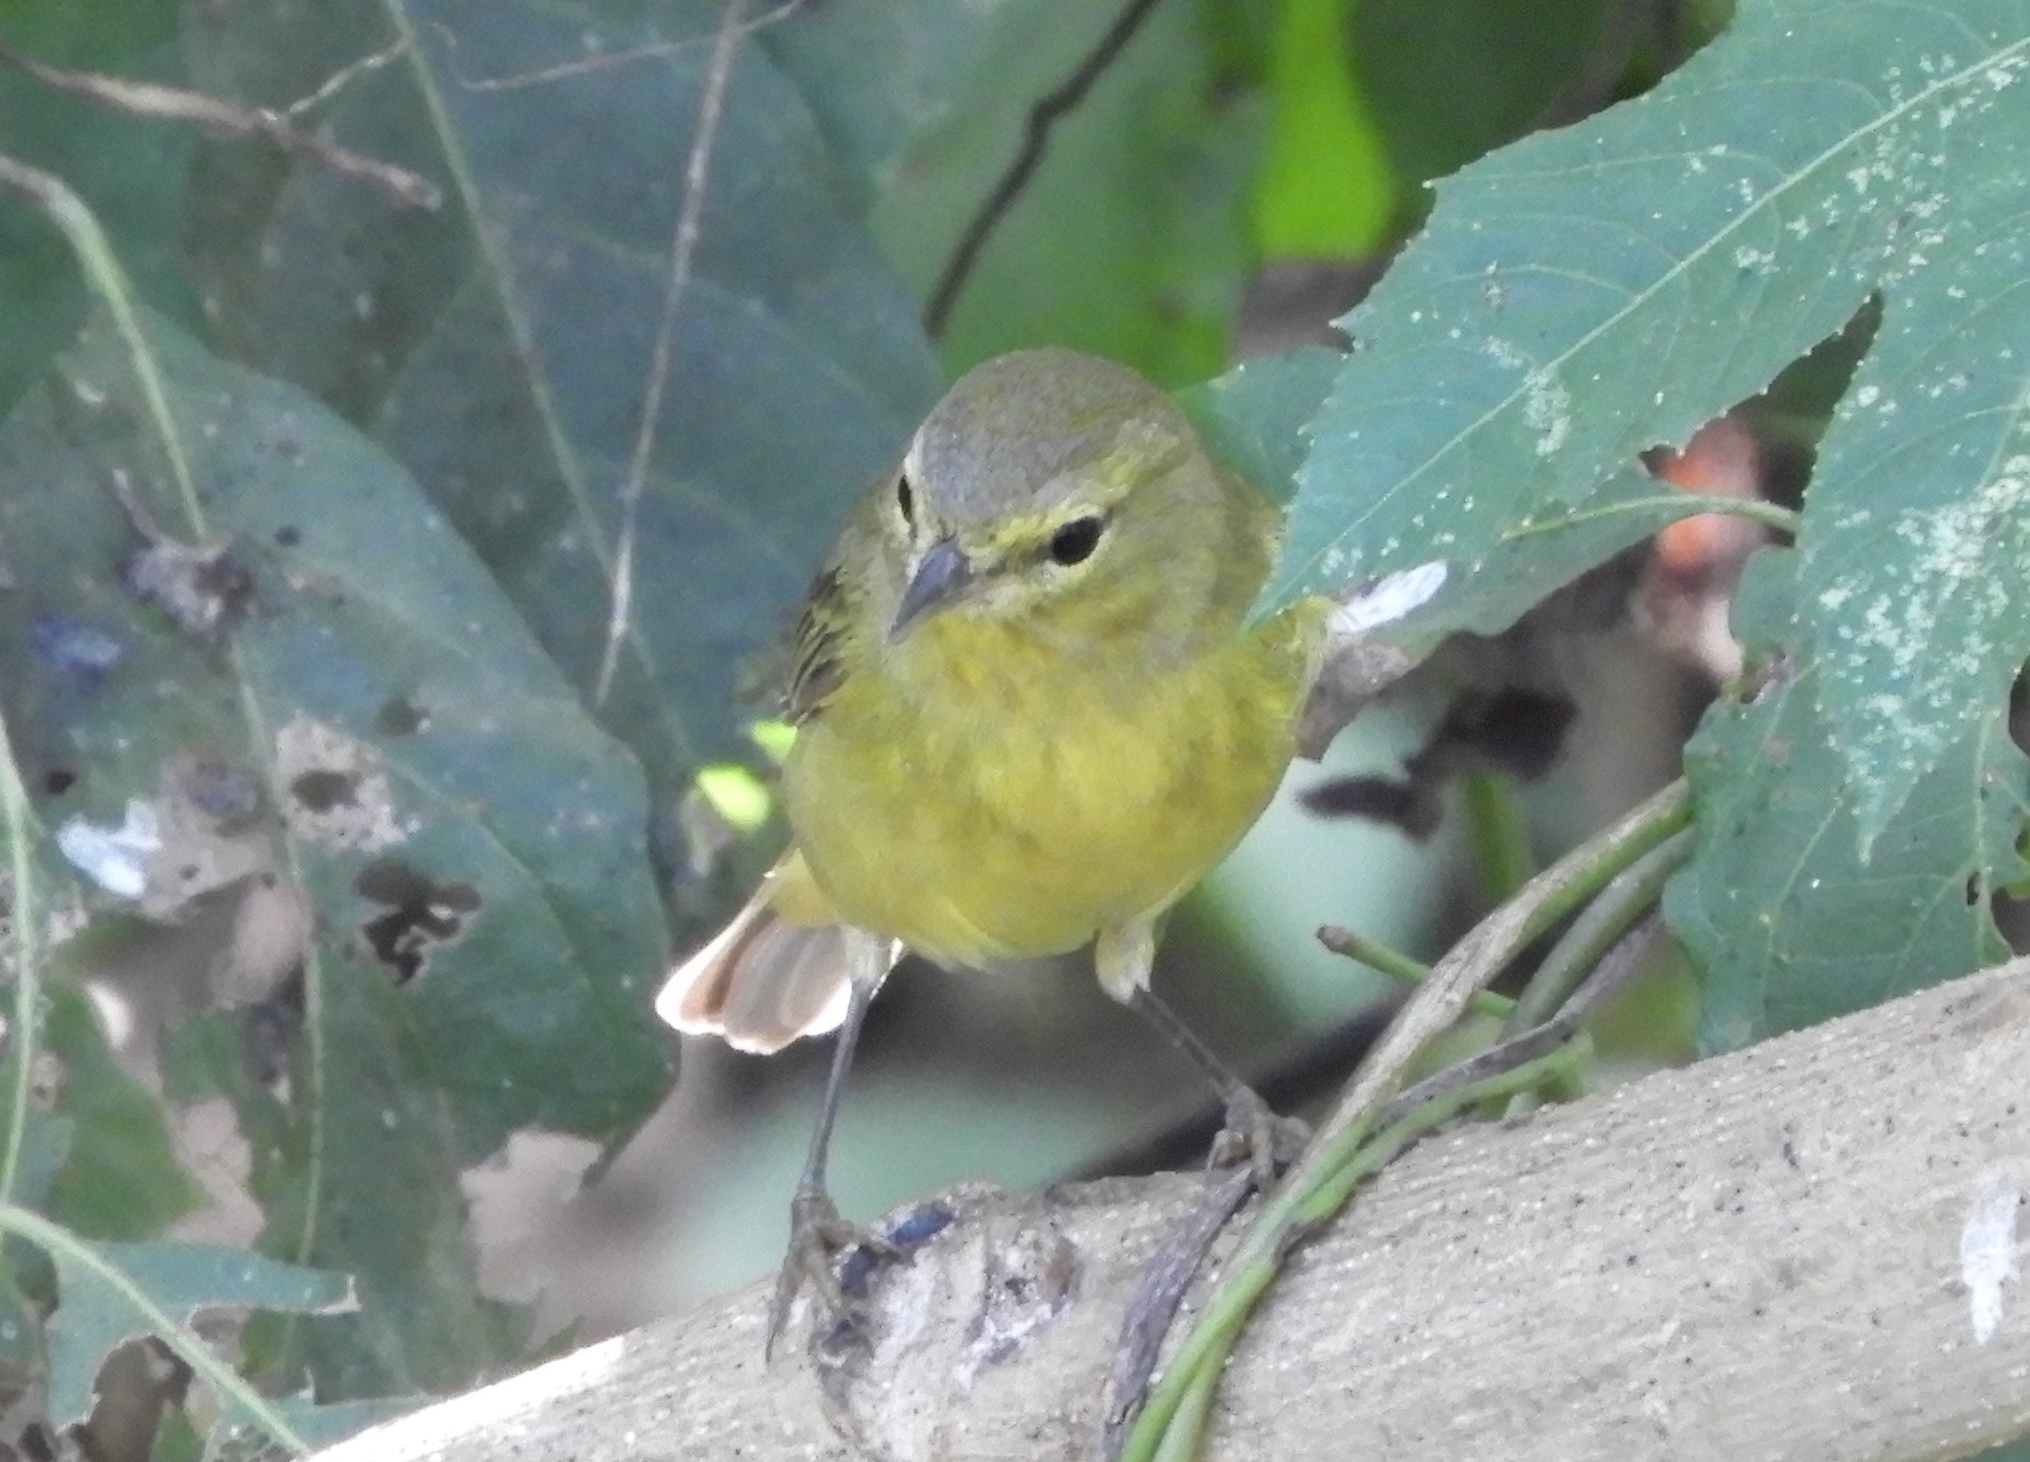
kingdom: Animalia
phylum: Chordata
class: Aves
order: Passeriformes
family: Parulidae
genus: Leiothlypis
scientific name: Leiothlypis celata
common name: Orange-crowned warbler
